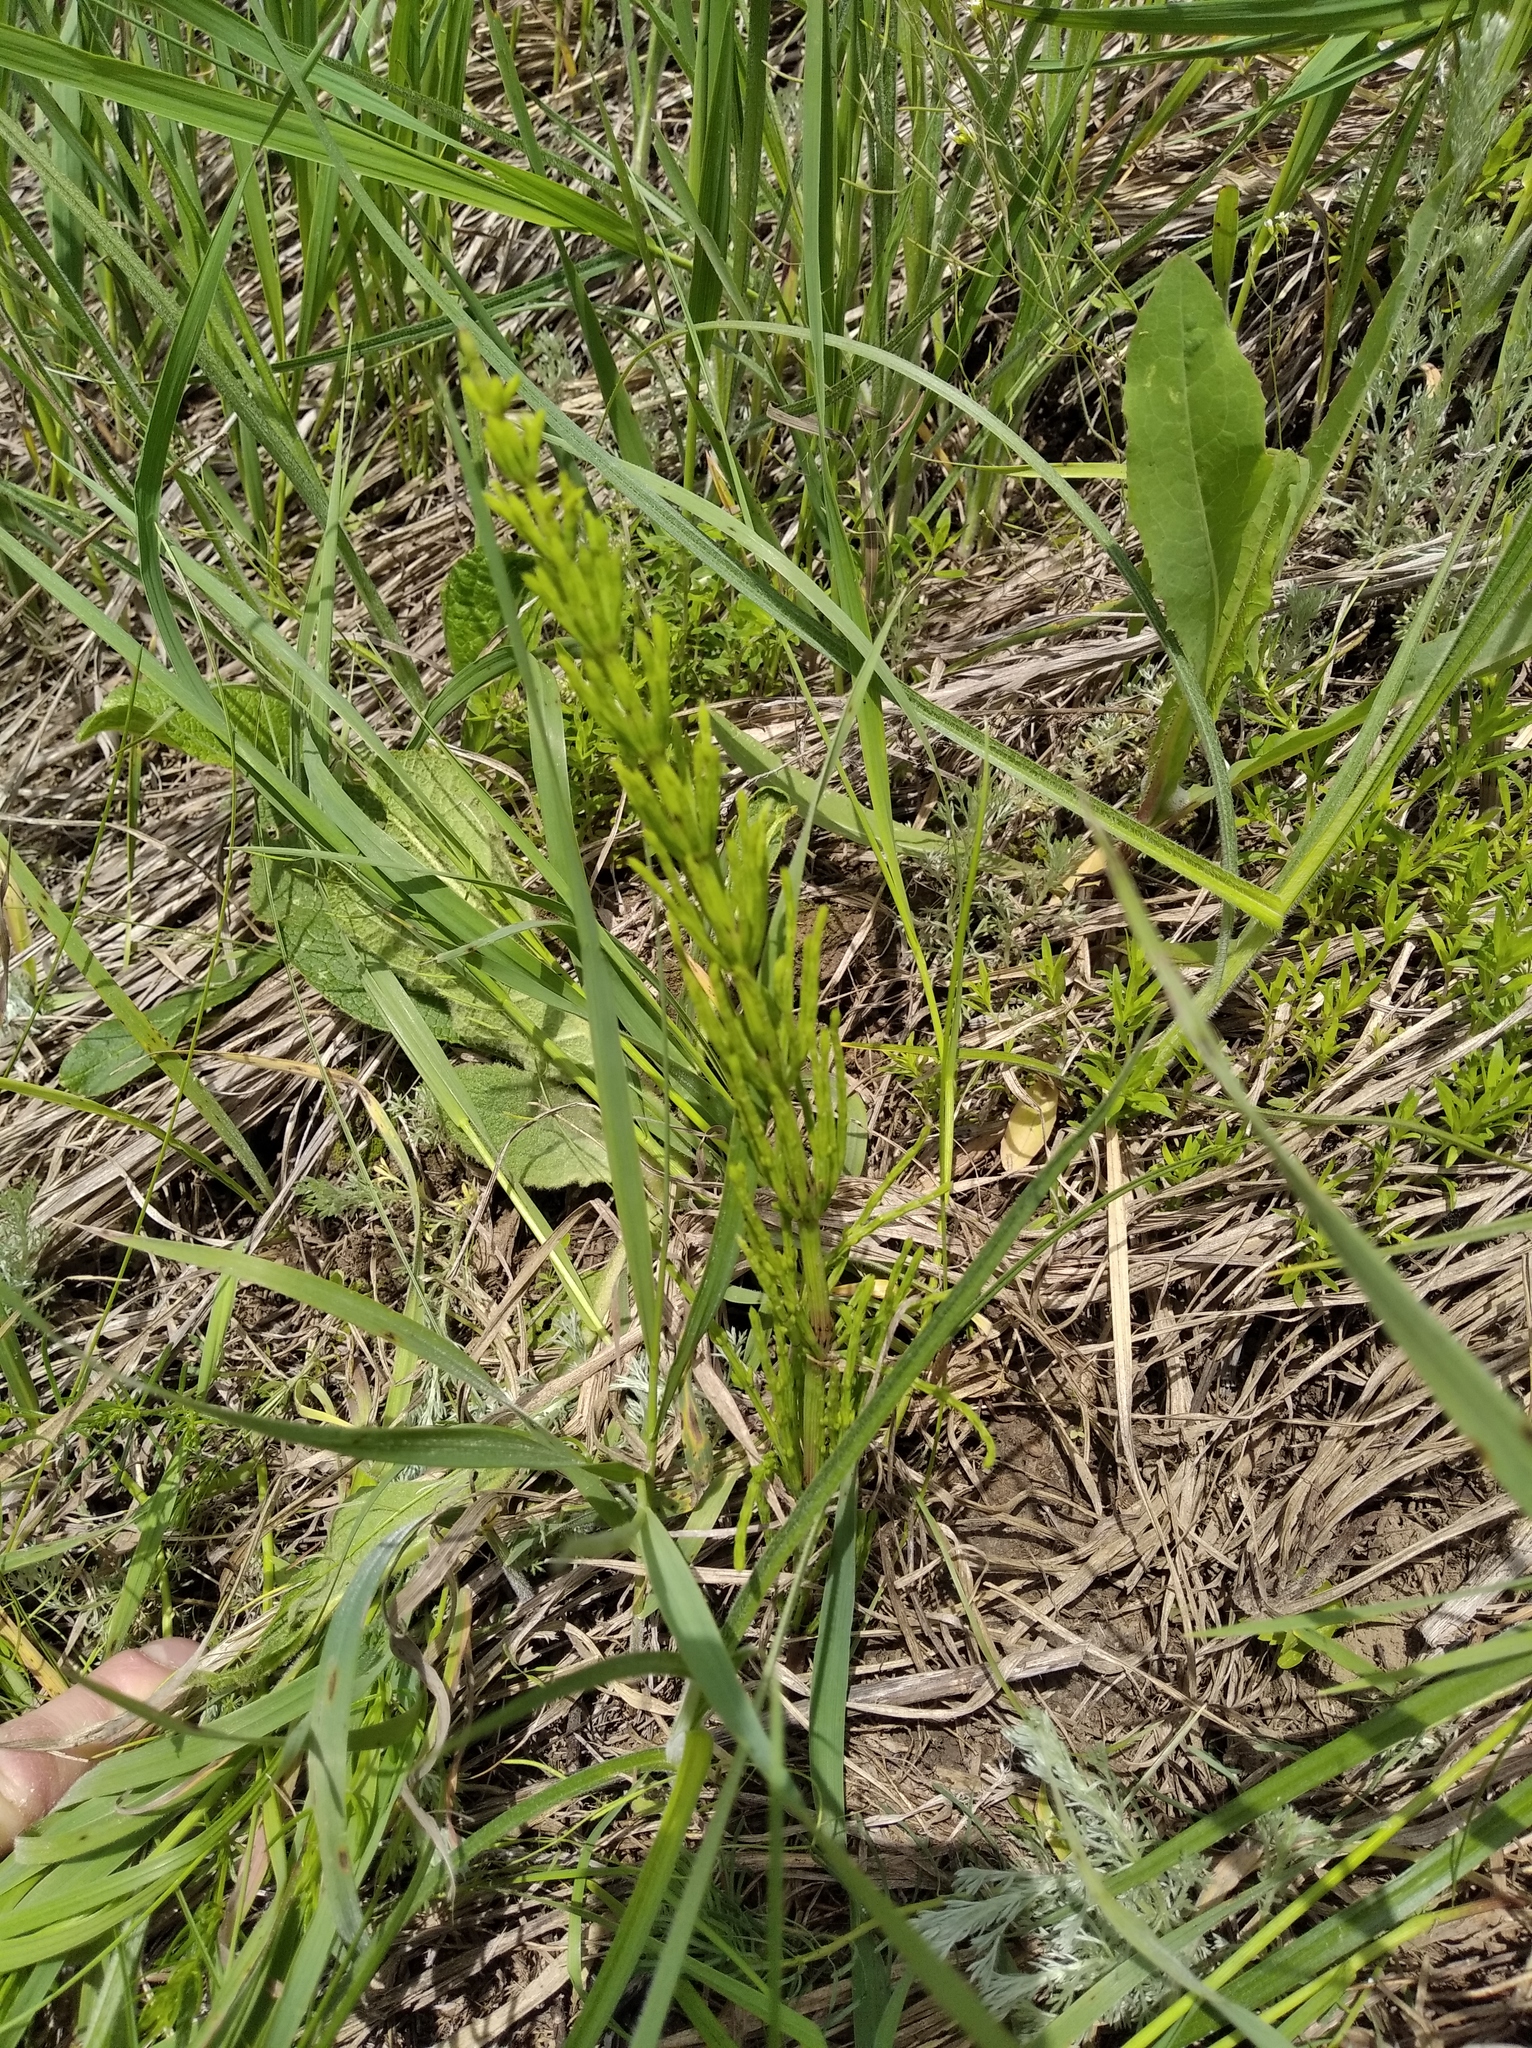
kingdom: Plantae
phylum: Tracheophyta
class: Polypodiopsida
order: Equisetales
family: Equisetaceae
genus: Equisetum
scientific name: Equisetum arvense
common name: Field horsetail
